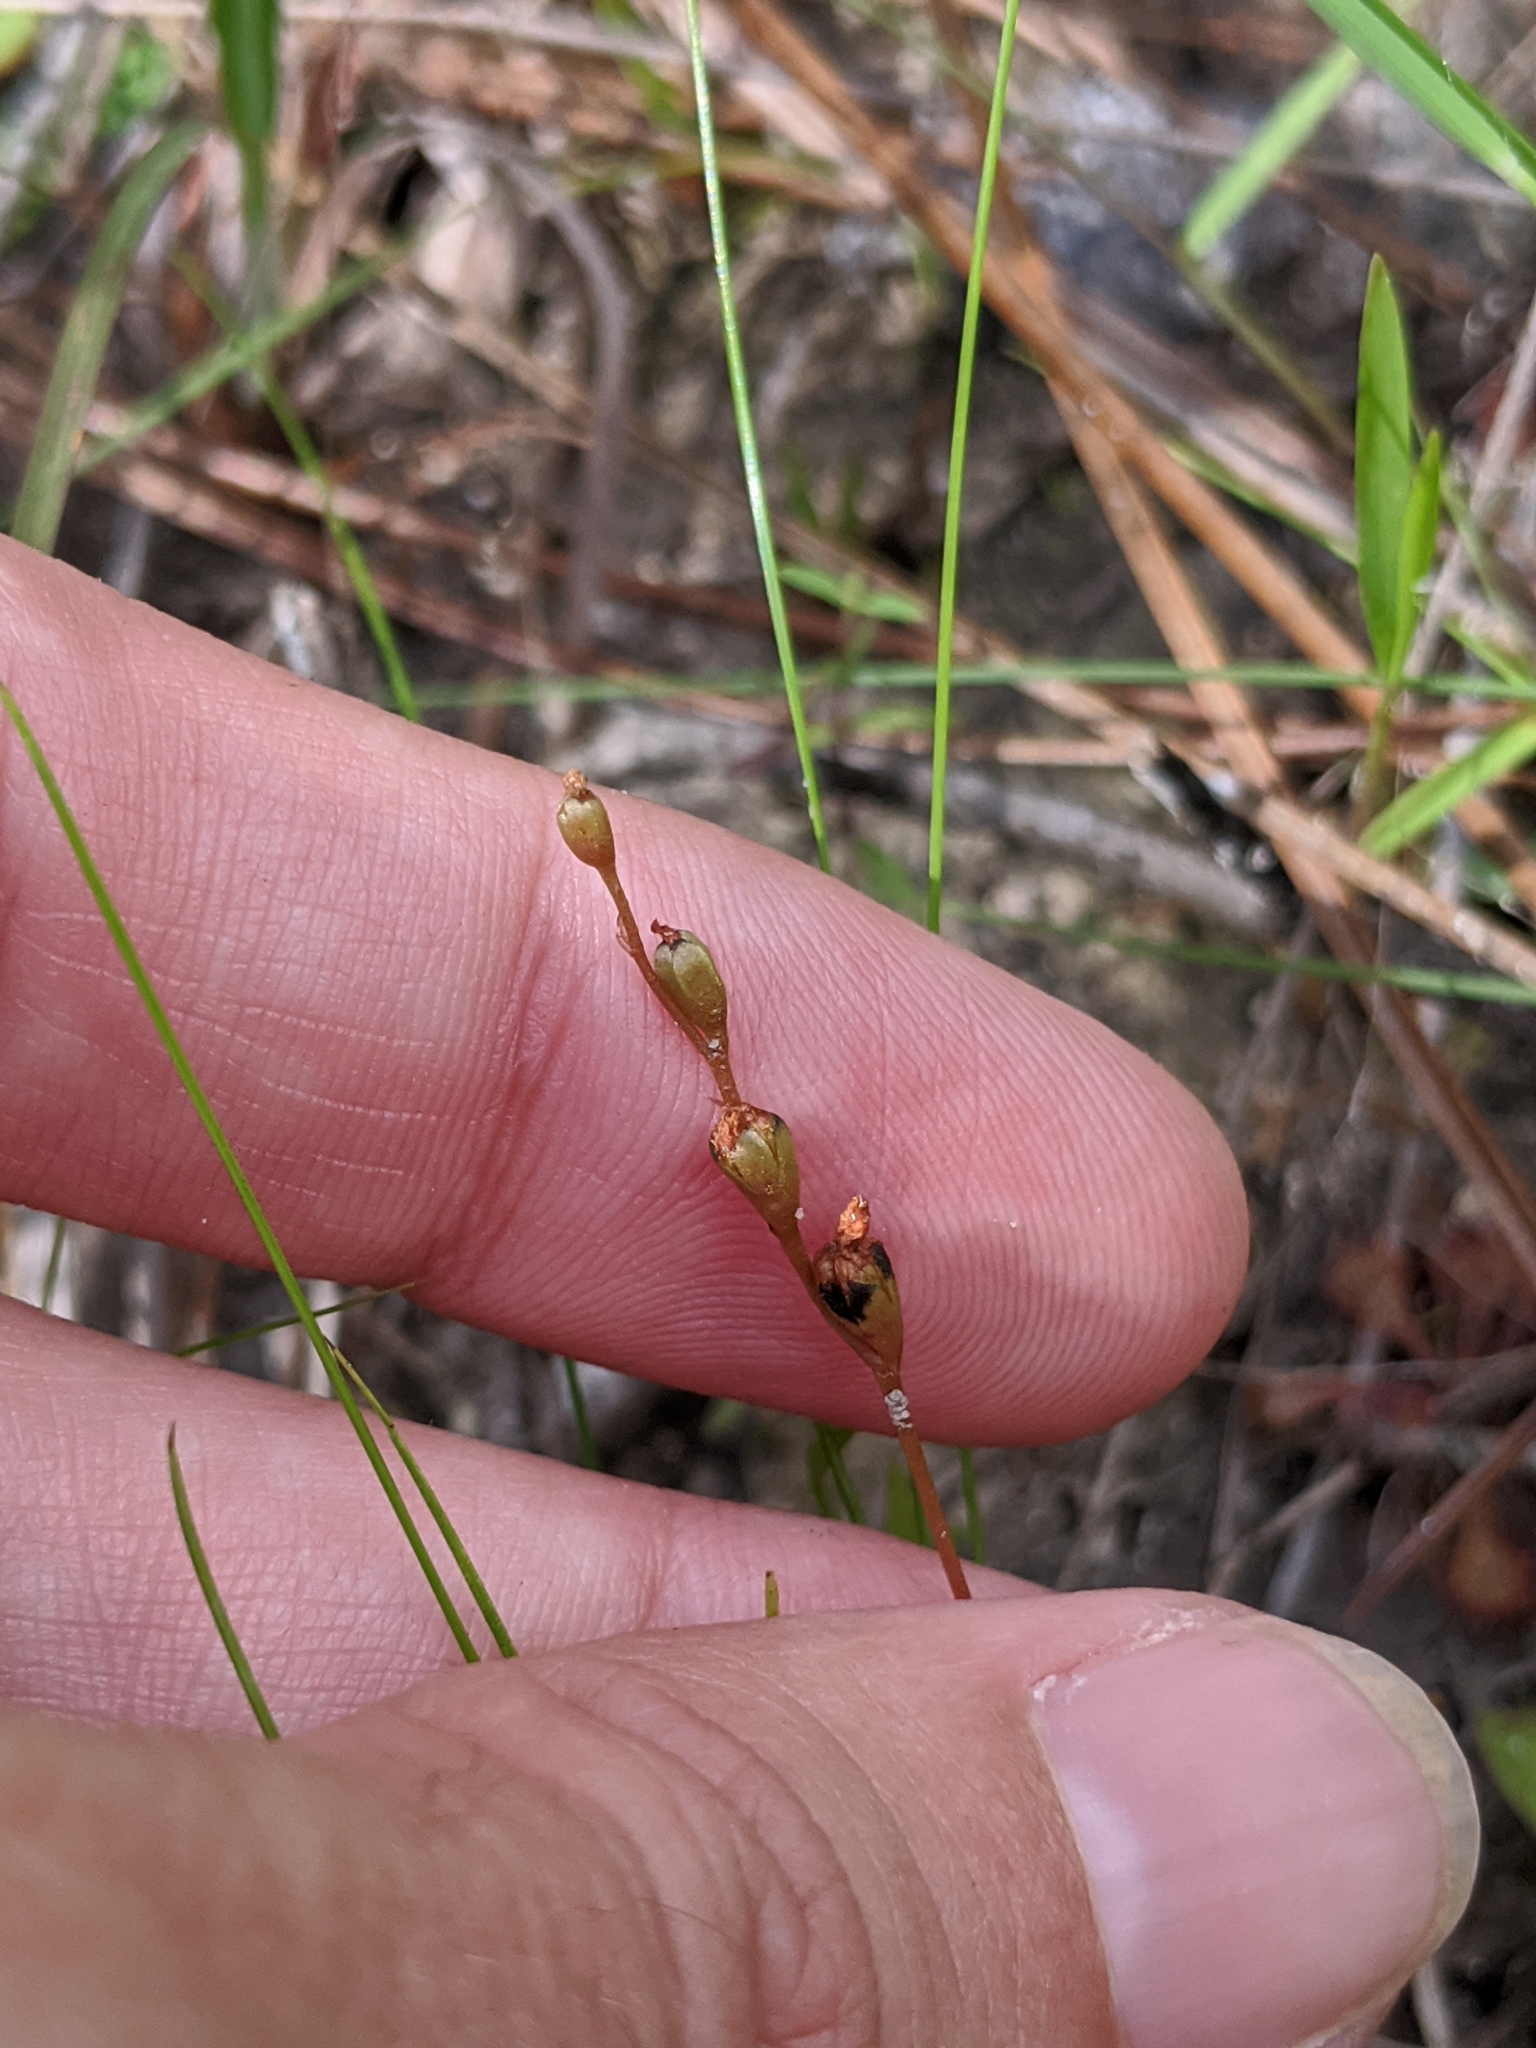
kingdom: Plantae
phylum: Tracheophyta
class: Magnoliopsida
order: Caryophyllales
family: Droseraceae
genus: Drosera
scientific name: Drosera capillaris
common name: Pink sundew
